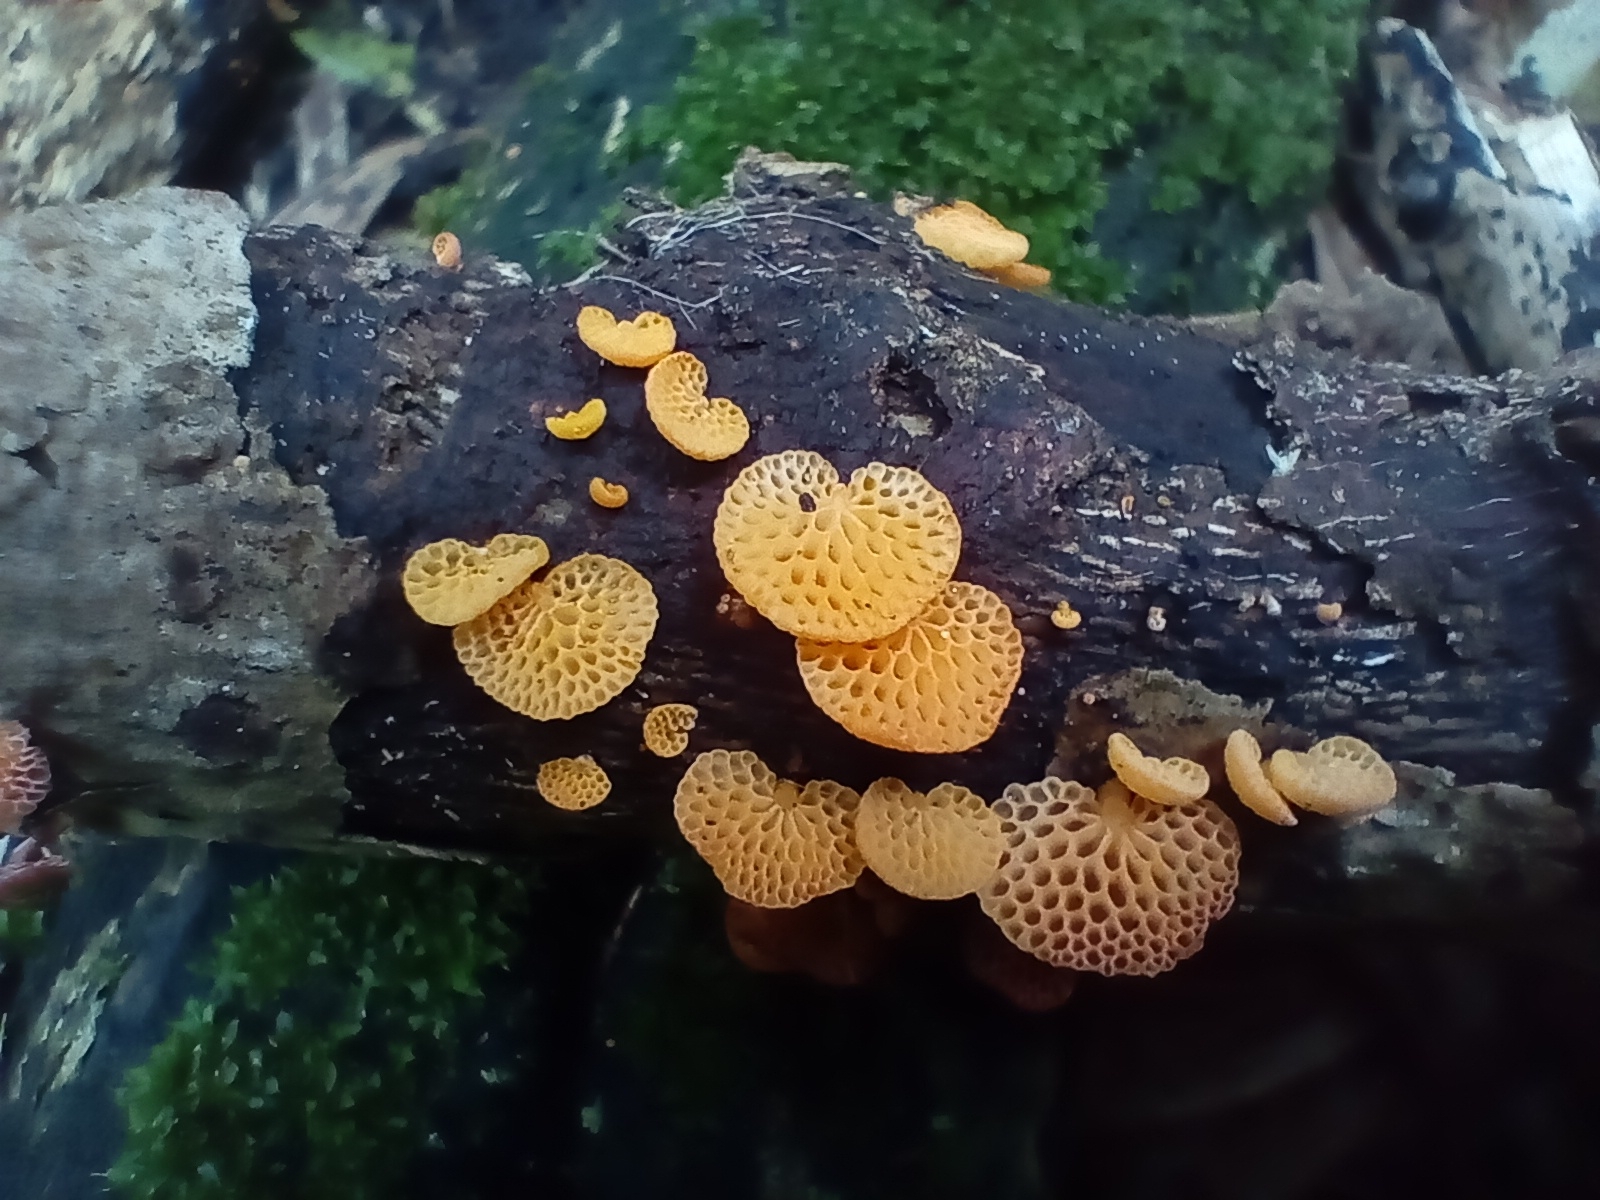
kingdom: Fungi
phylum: Basidiomycota
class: Agaricomycetes
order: Agaricales
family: Mycenaceae
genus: Favolaschia
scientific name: Favolaschia claudopus
